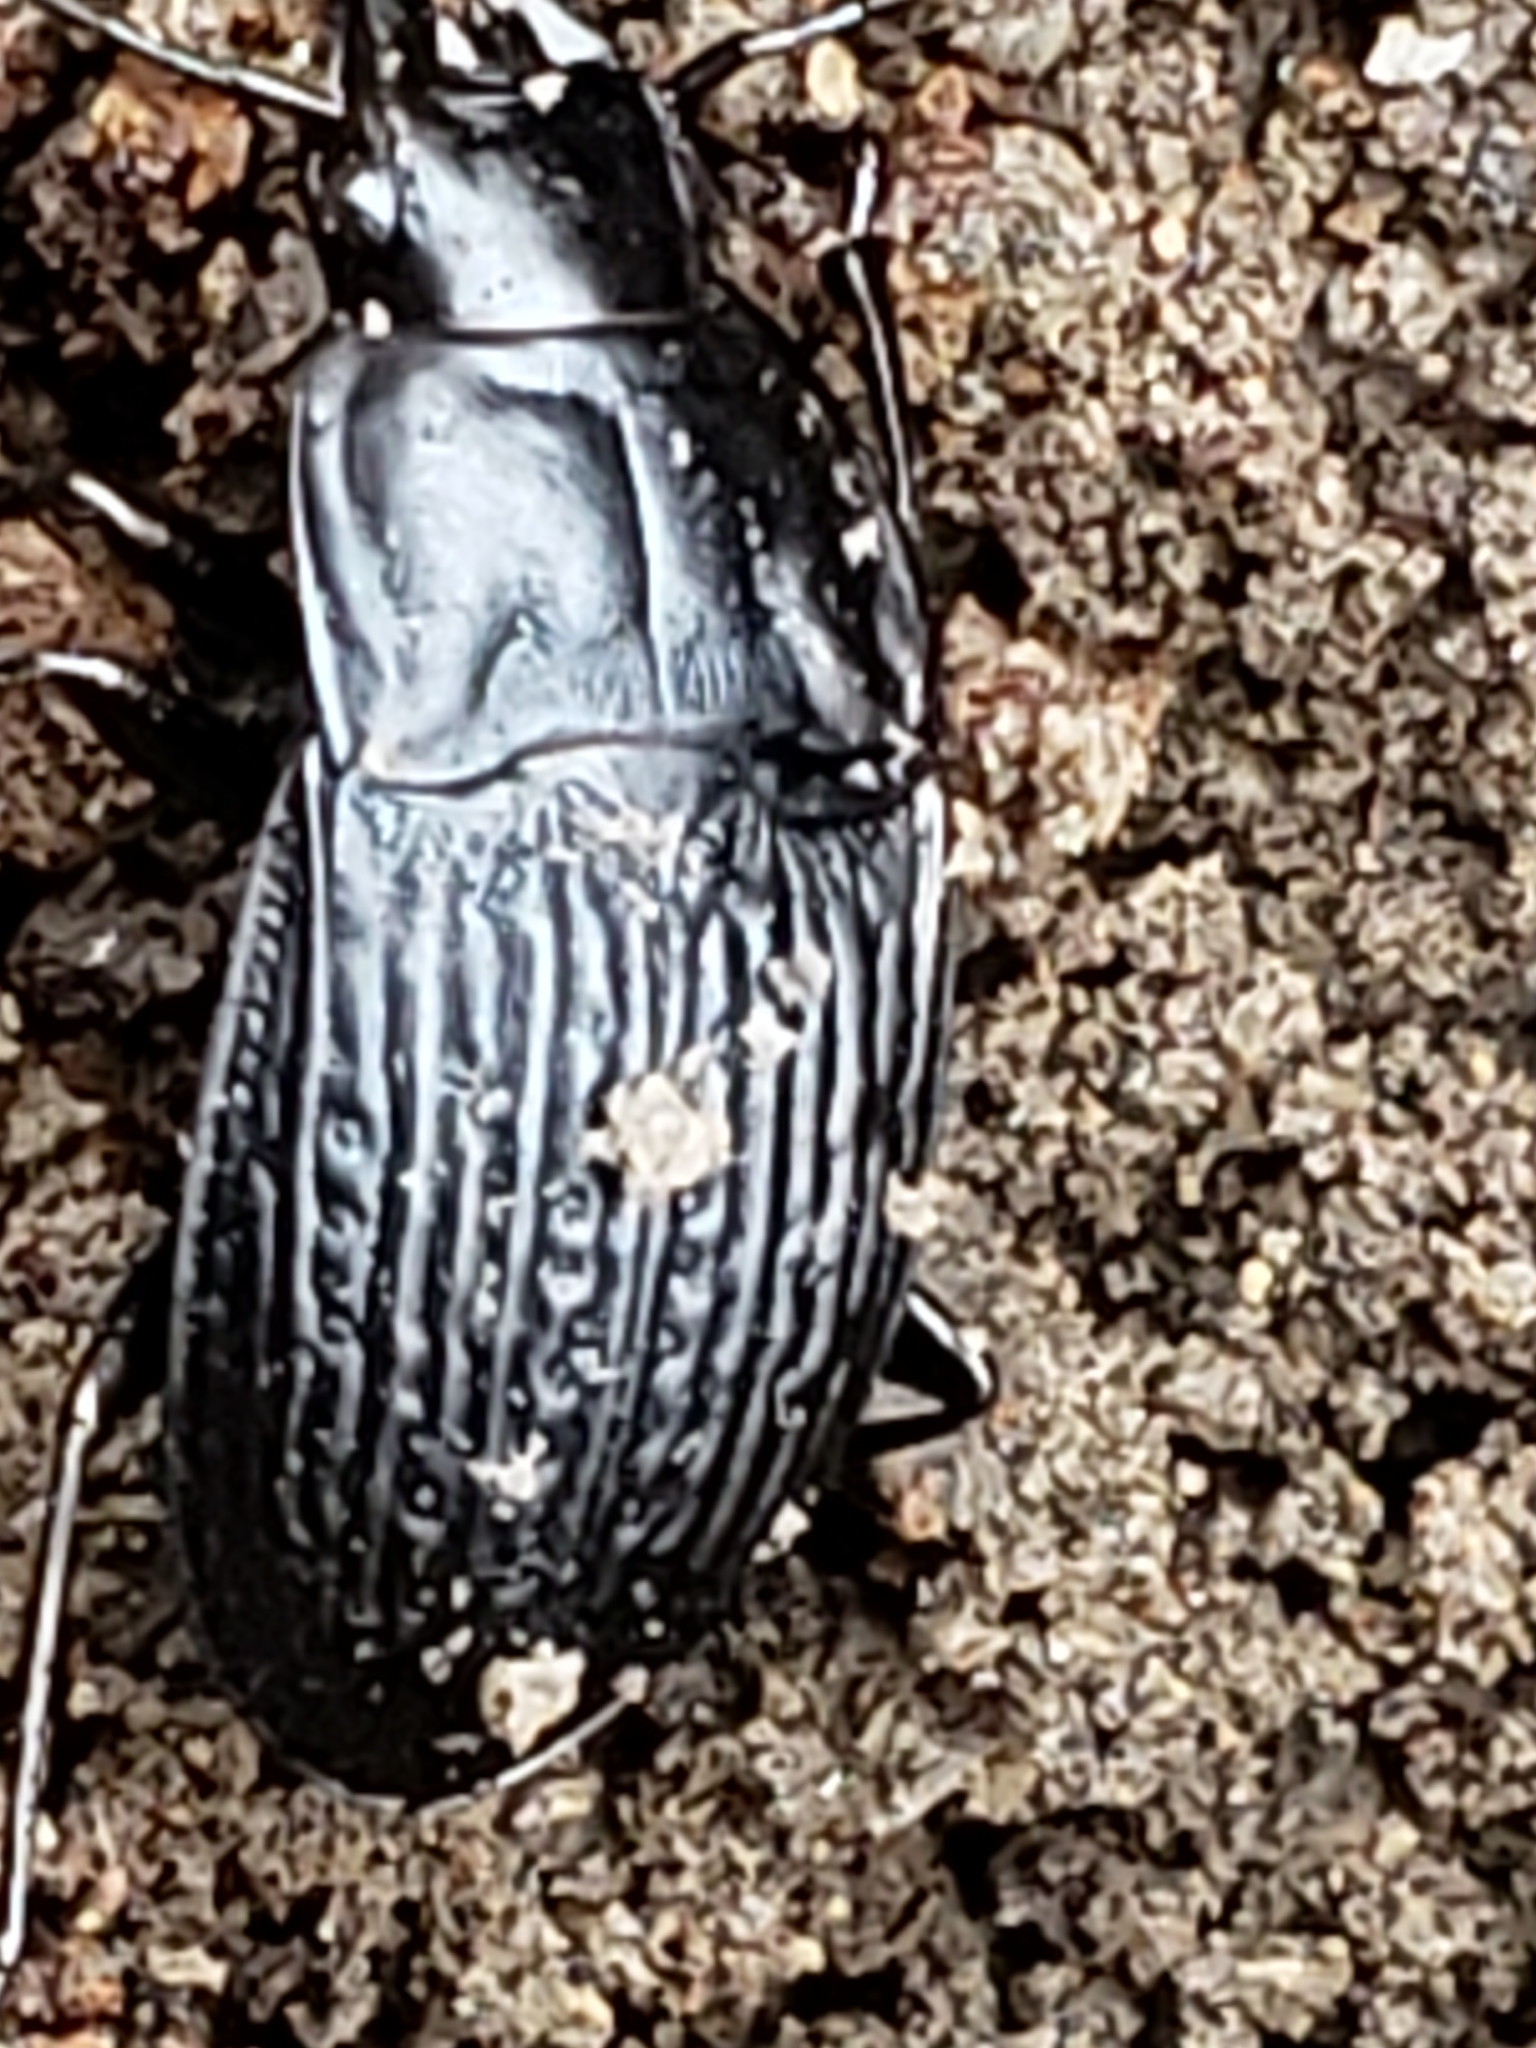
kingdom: Animalia
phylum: Arthropoda
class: Insecta
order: Coleoptera
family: Carabidae
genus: Dicaelus
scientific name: Dicaelus sculptilis
